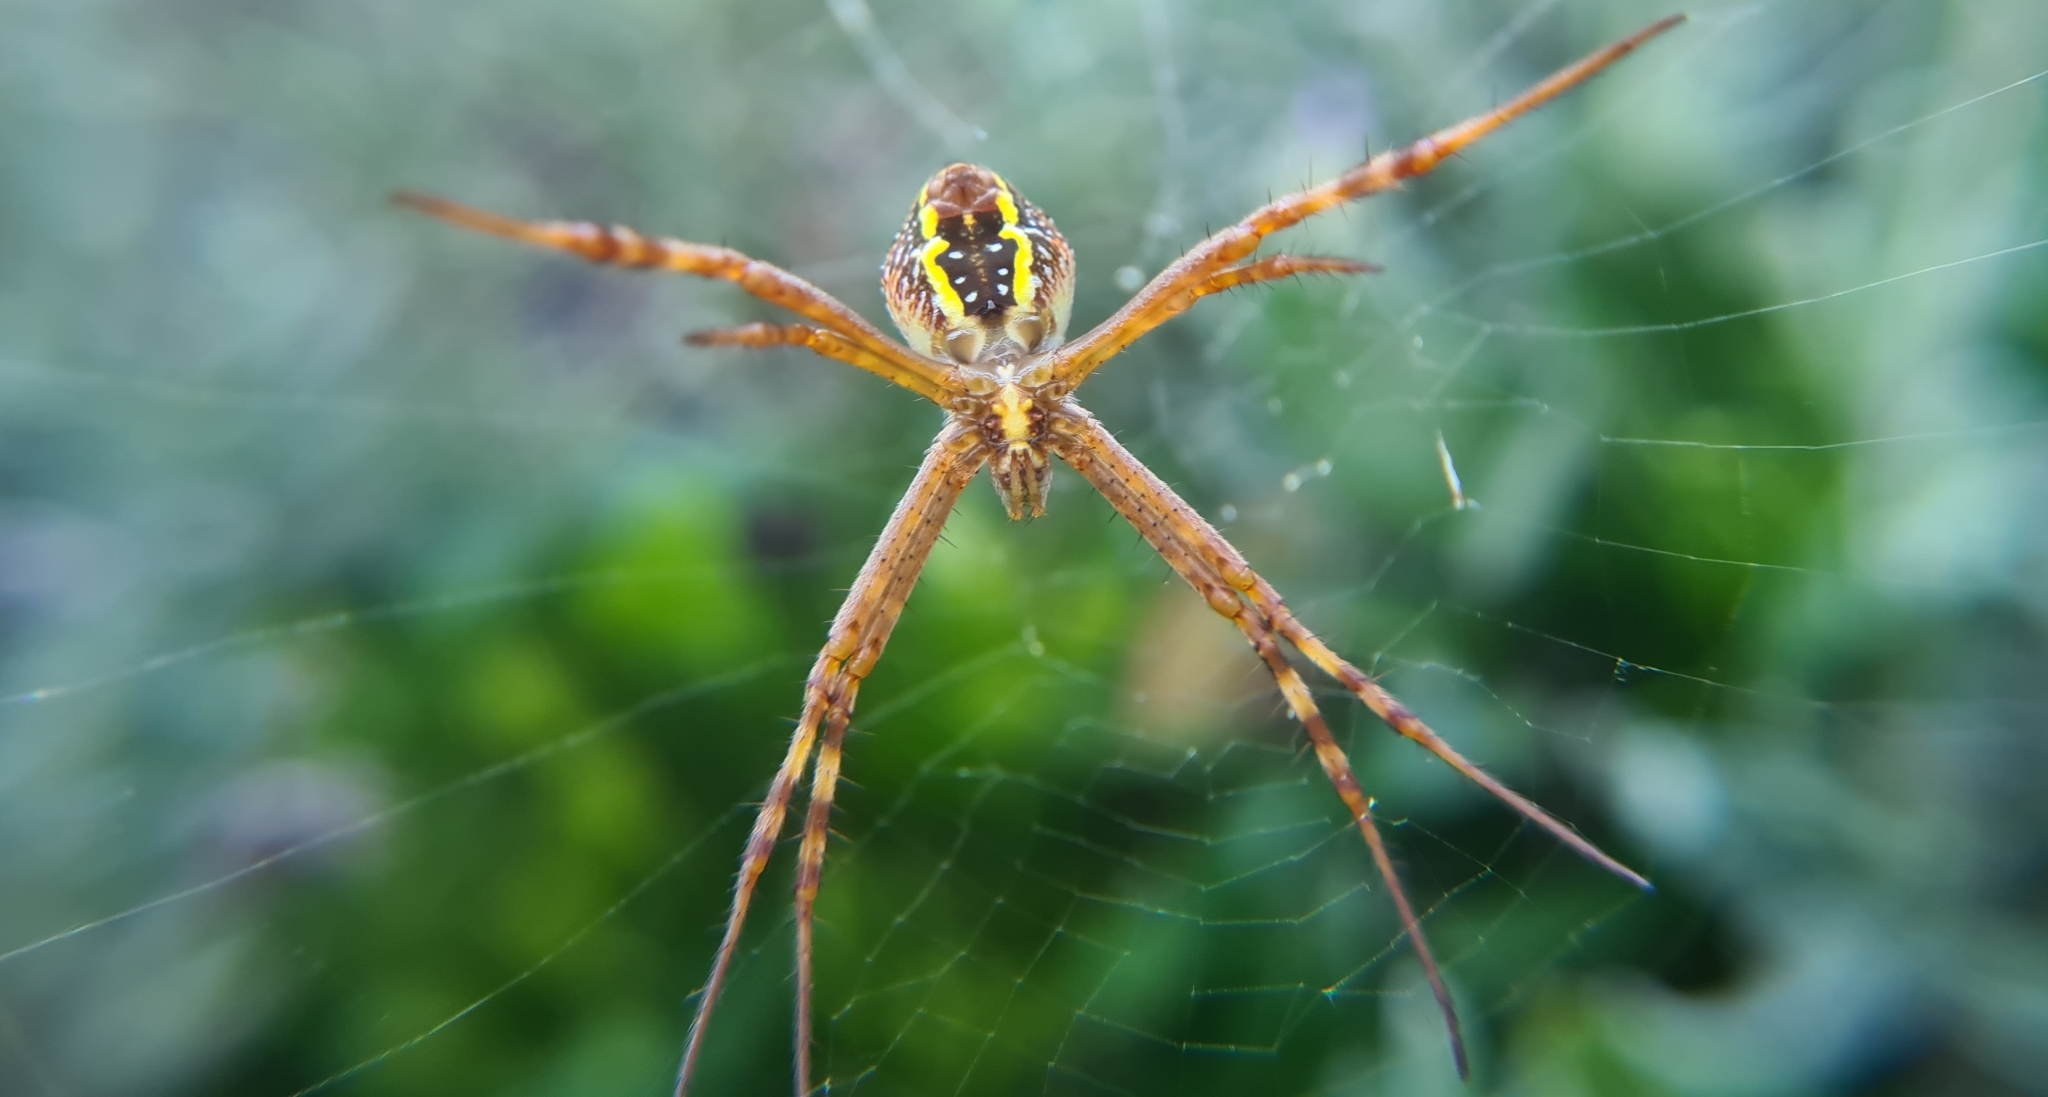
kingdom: Animalia
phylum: Arthropoda
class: Arachnida
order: Araneae
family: Araneidae
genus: Argiope
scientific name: Argiope keyserlingi
